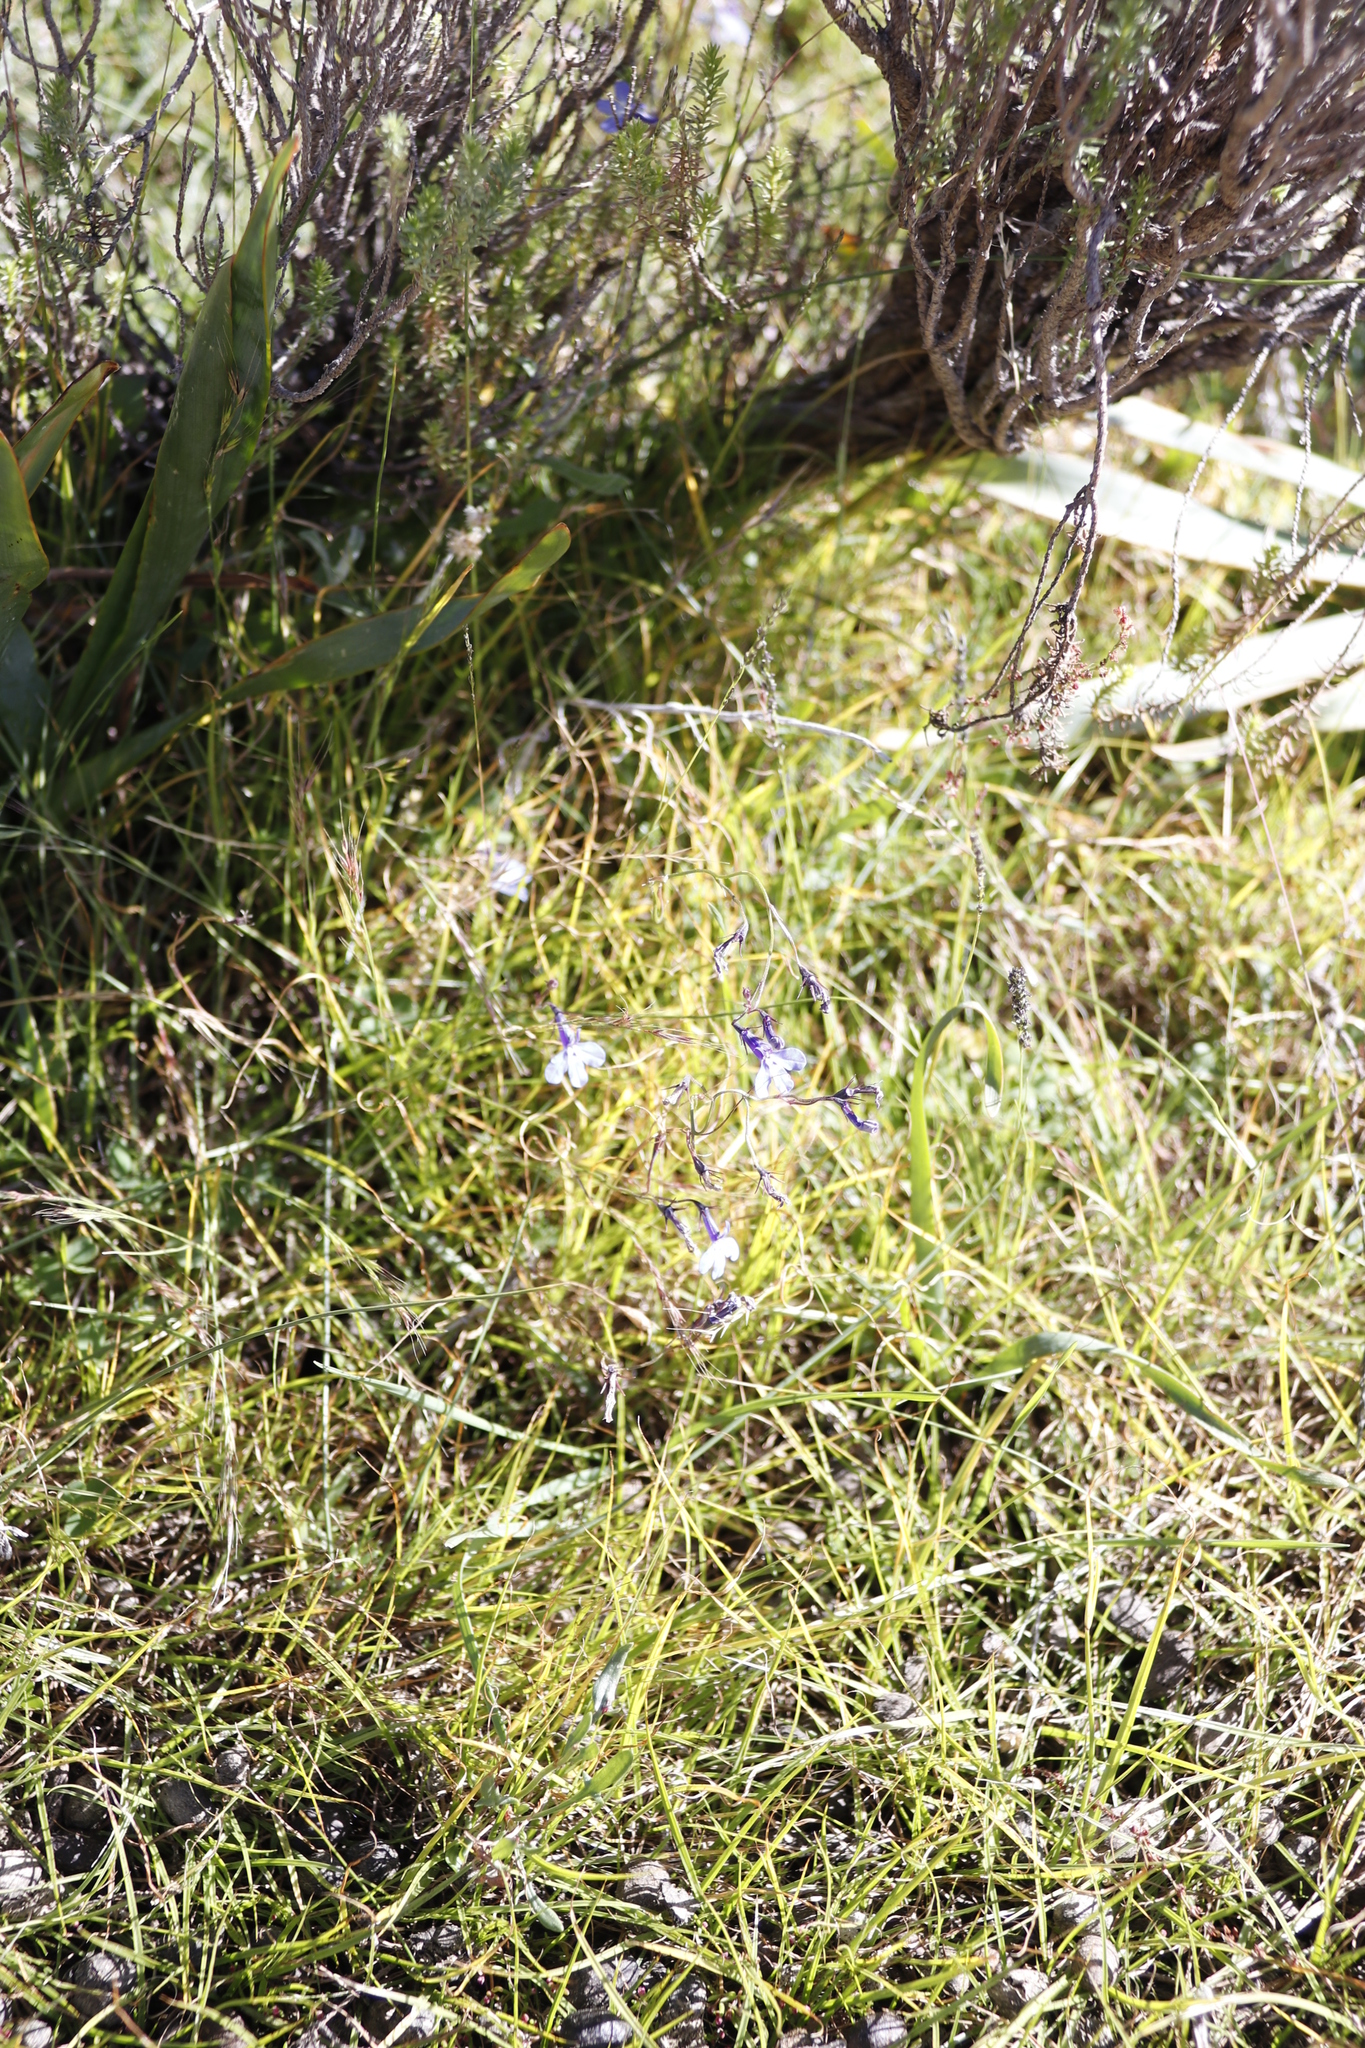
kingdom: Plantae
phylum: Tracheophyta
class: Magnoliopsida
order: Asterales
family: Campanulaceae
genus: Lobelia
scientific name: Lobelia flaccida
